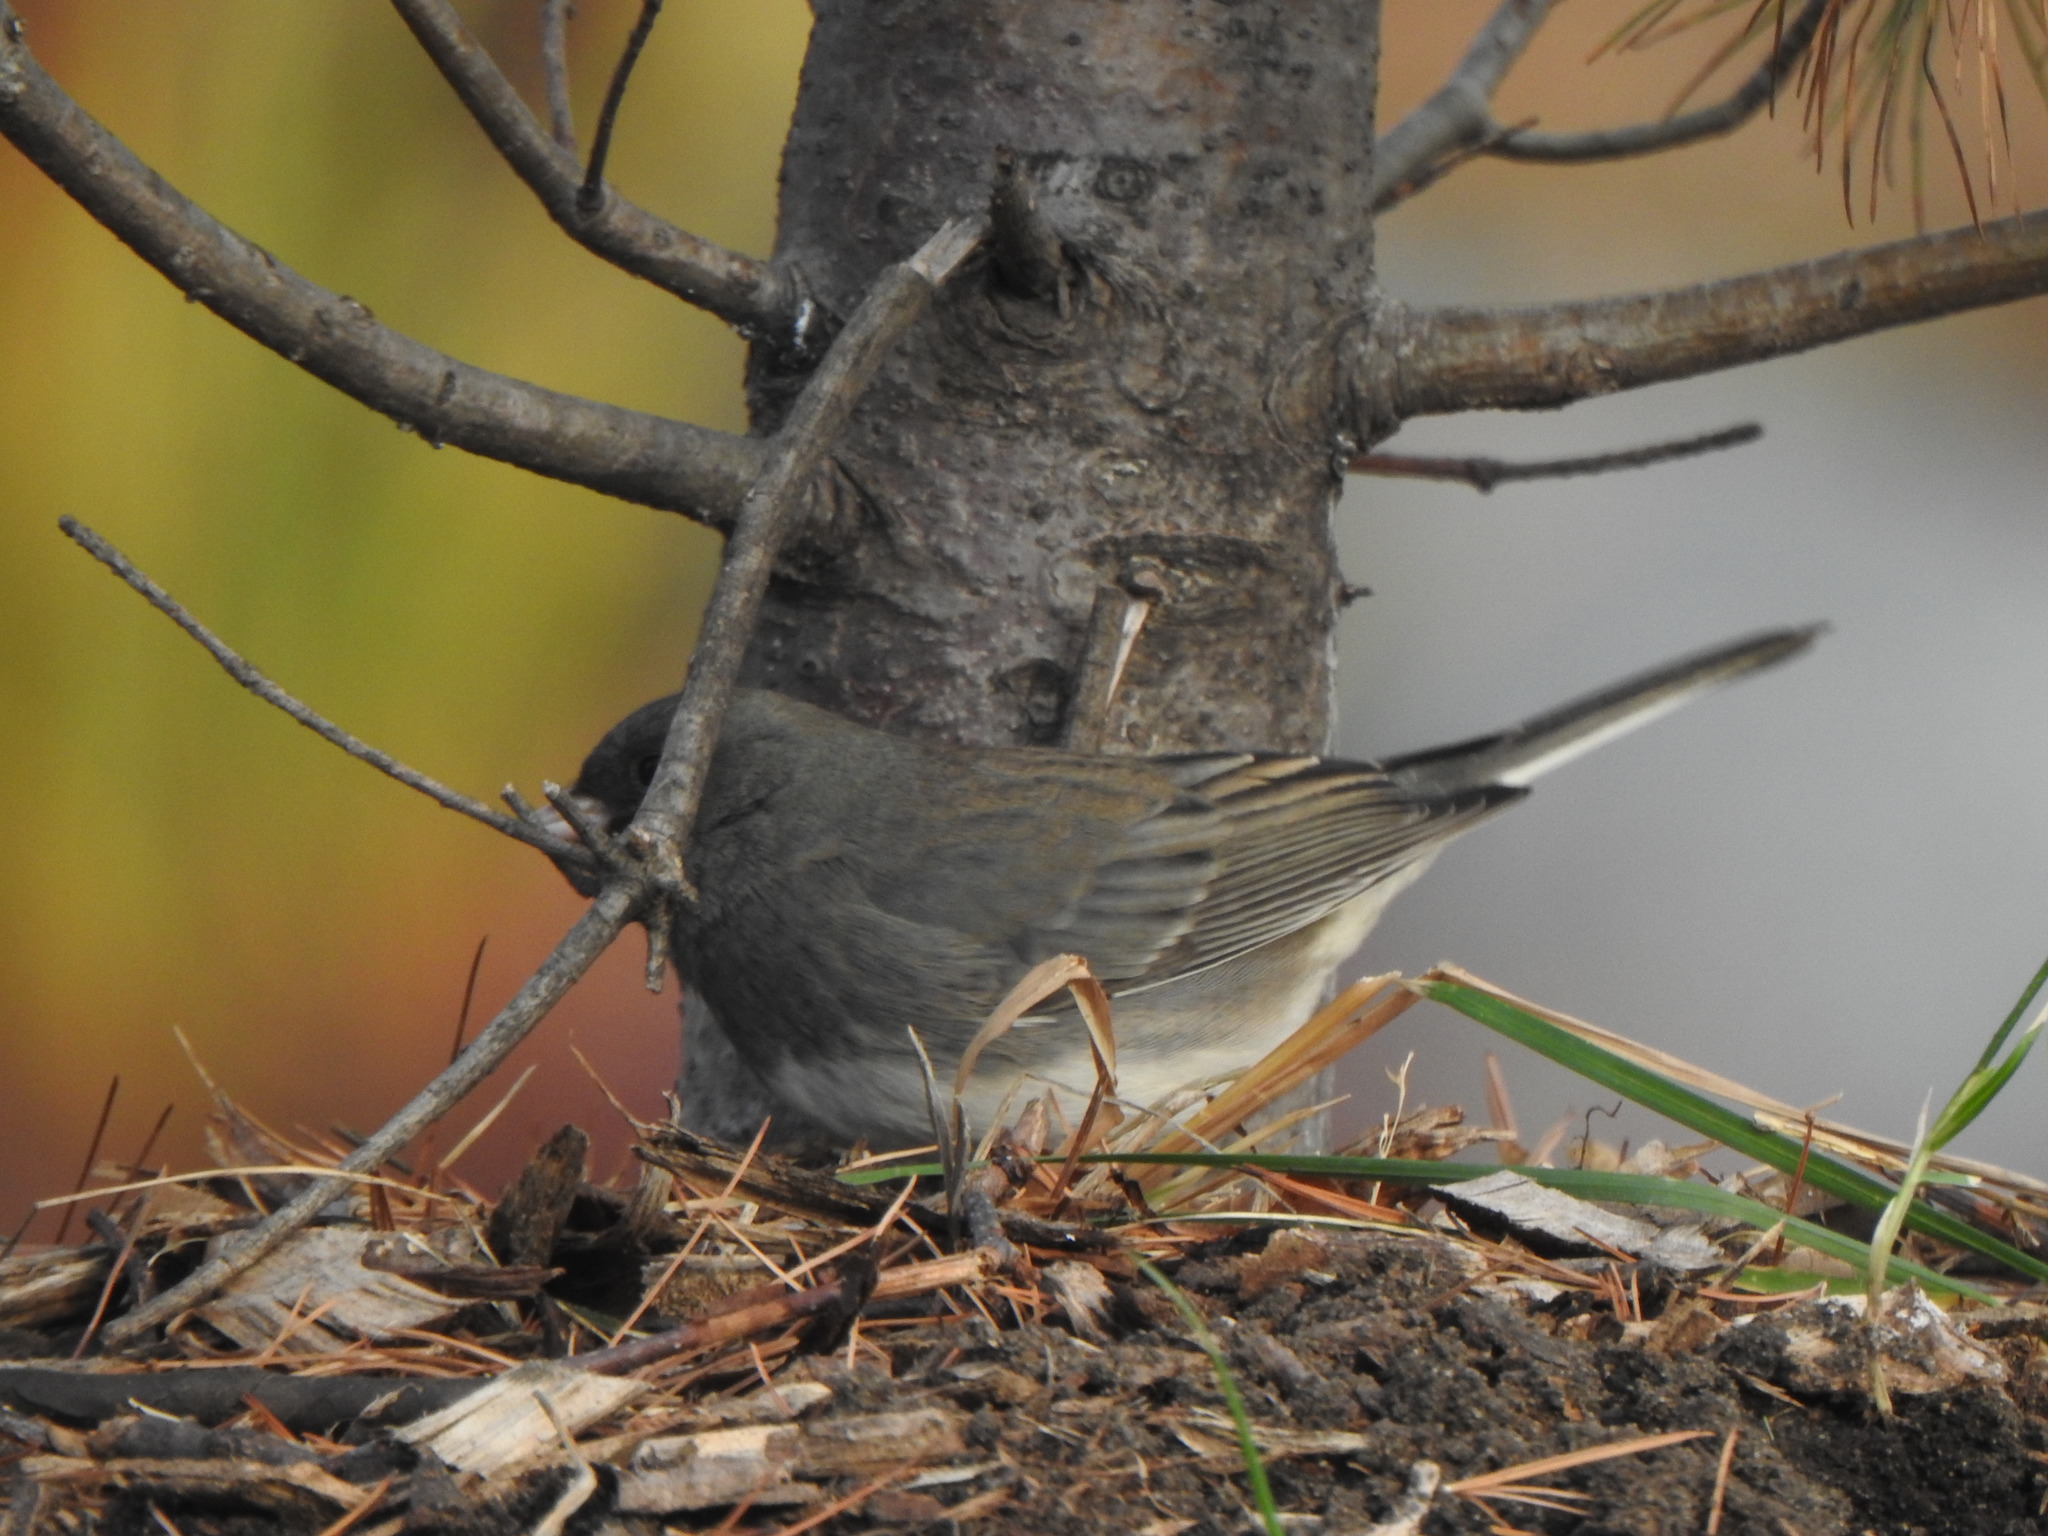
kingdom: Animalia
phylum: Chordata
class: Aves
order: Passeriformes
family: Passerellidae
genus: Junco
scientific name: Junco hyemalis
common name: Dark-eyed junco
